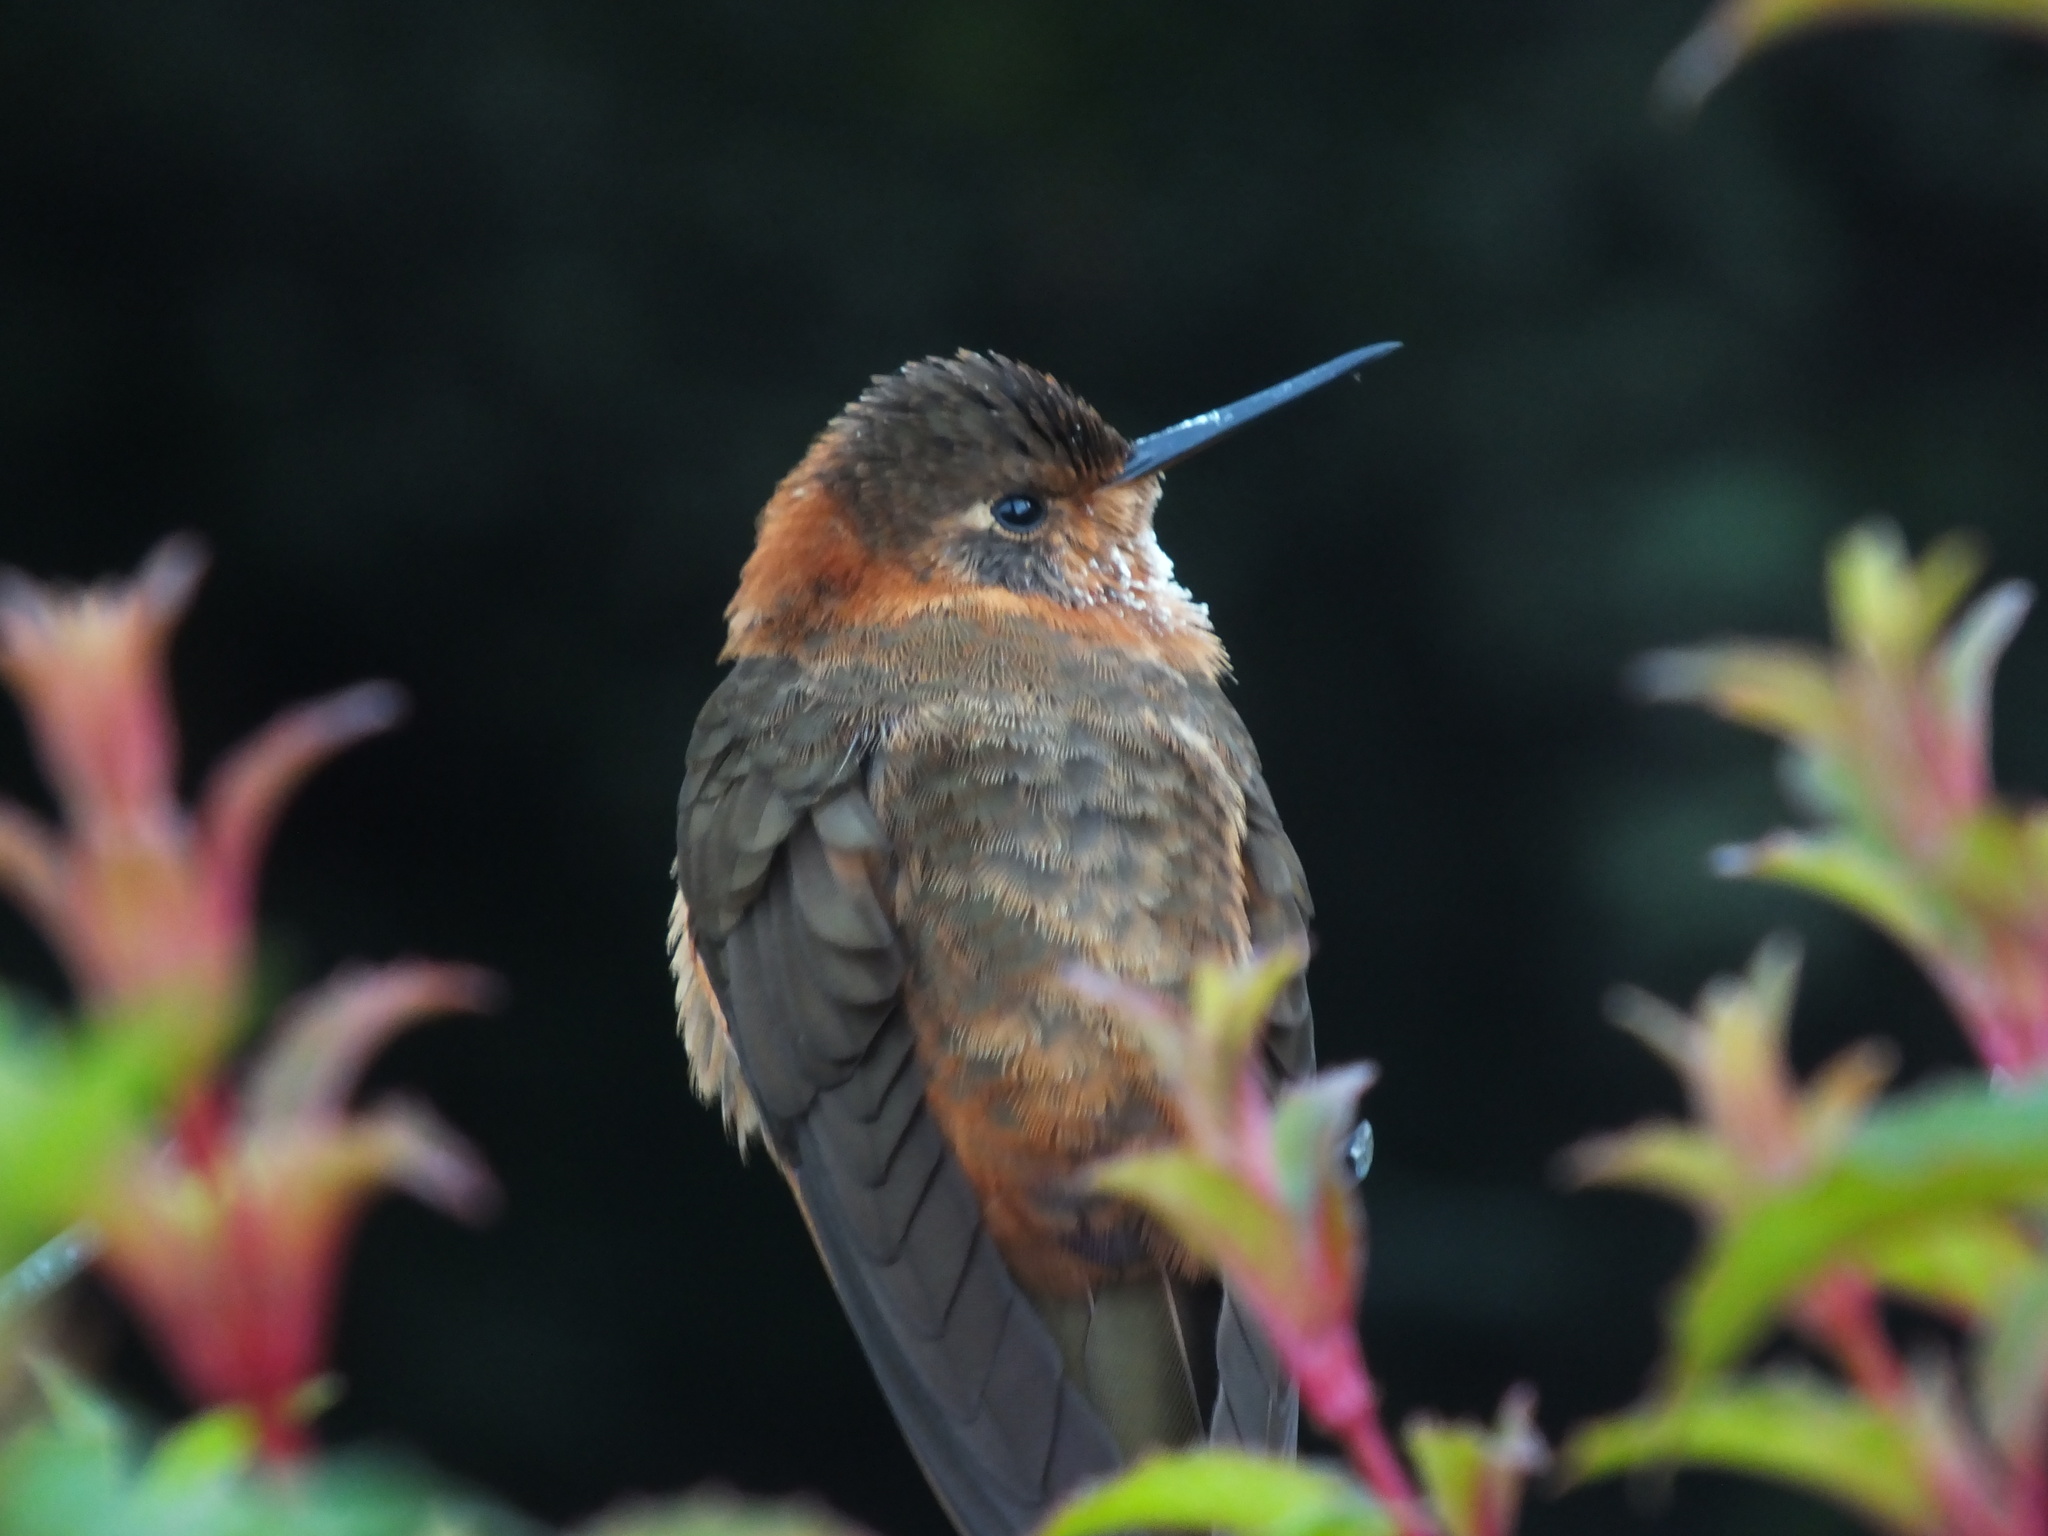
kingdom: Animalia
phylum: Chordata
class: Aves
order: Apodiformes
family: Trochilidae
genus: Aglaeactis
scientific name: Aglaeactis cupripennis
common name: Shining sunbeam
